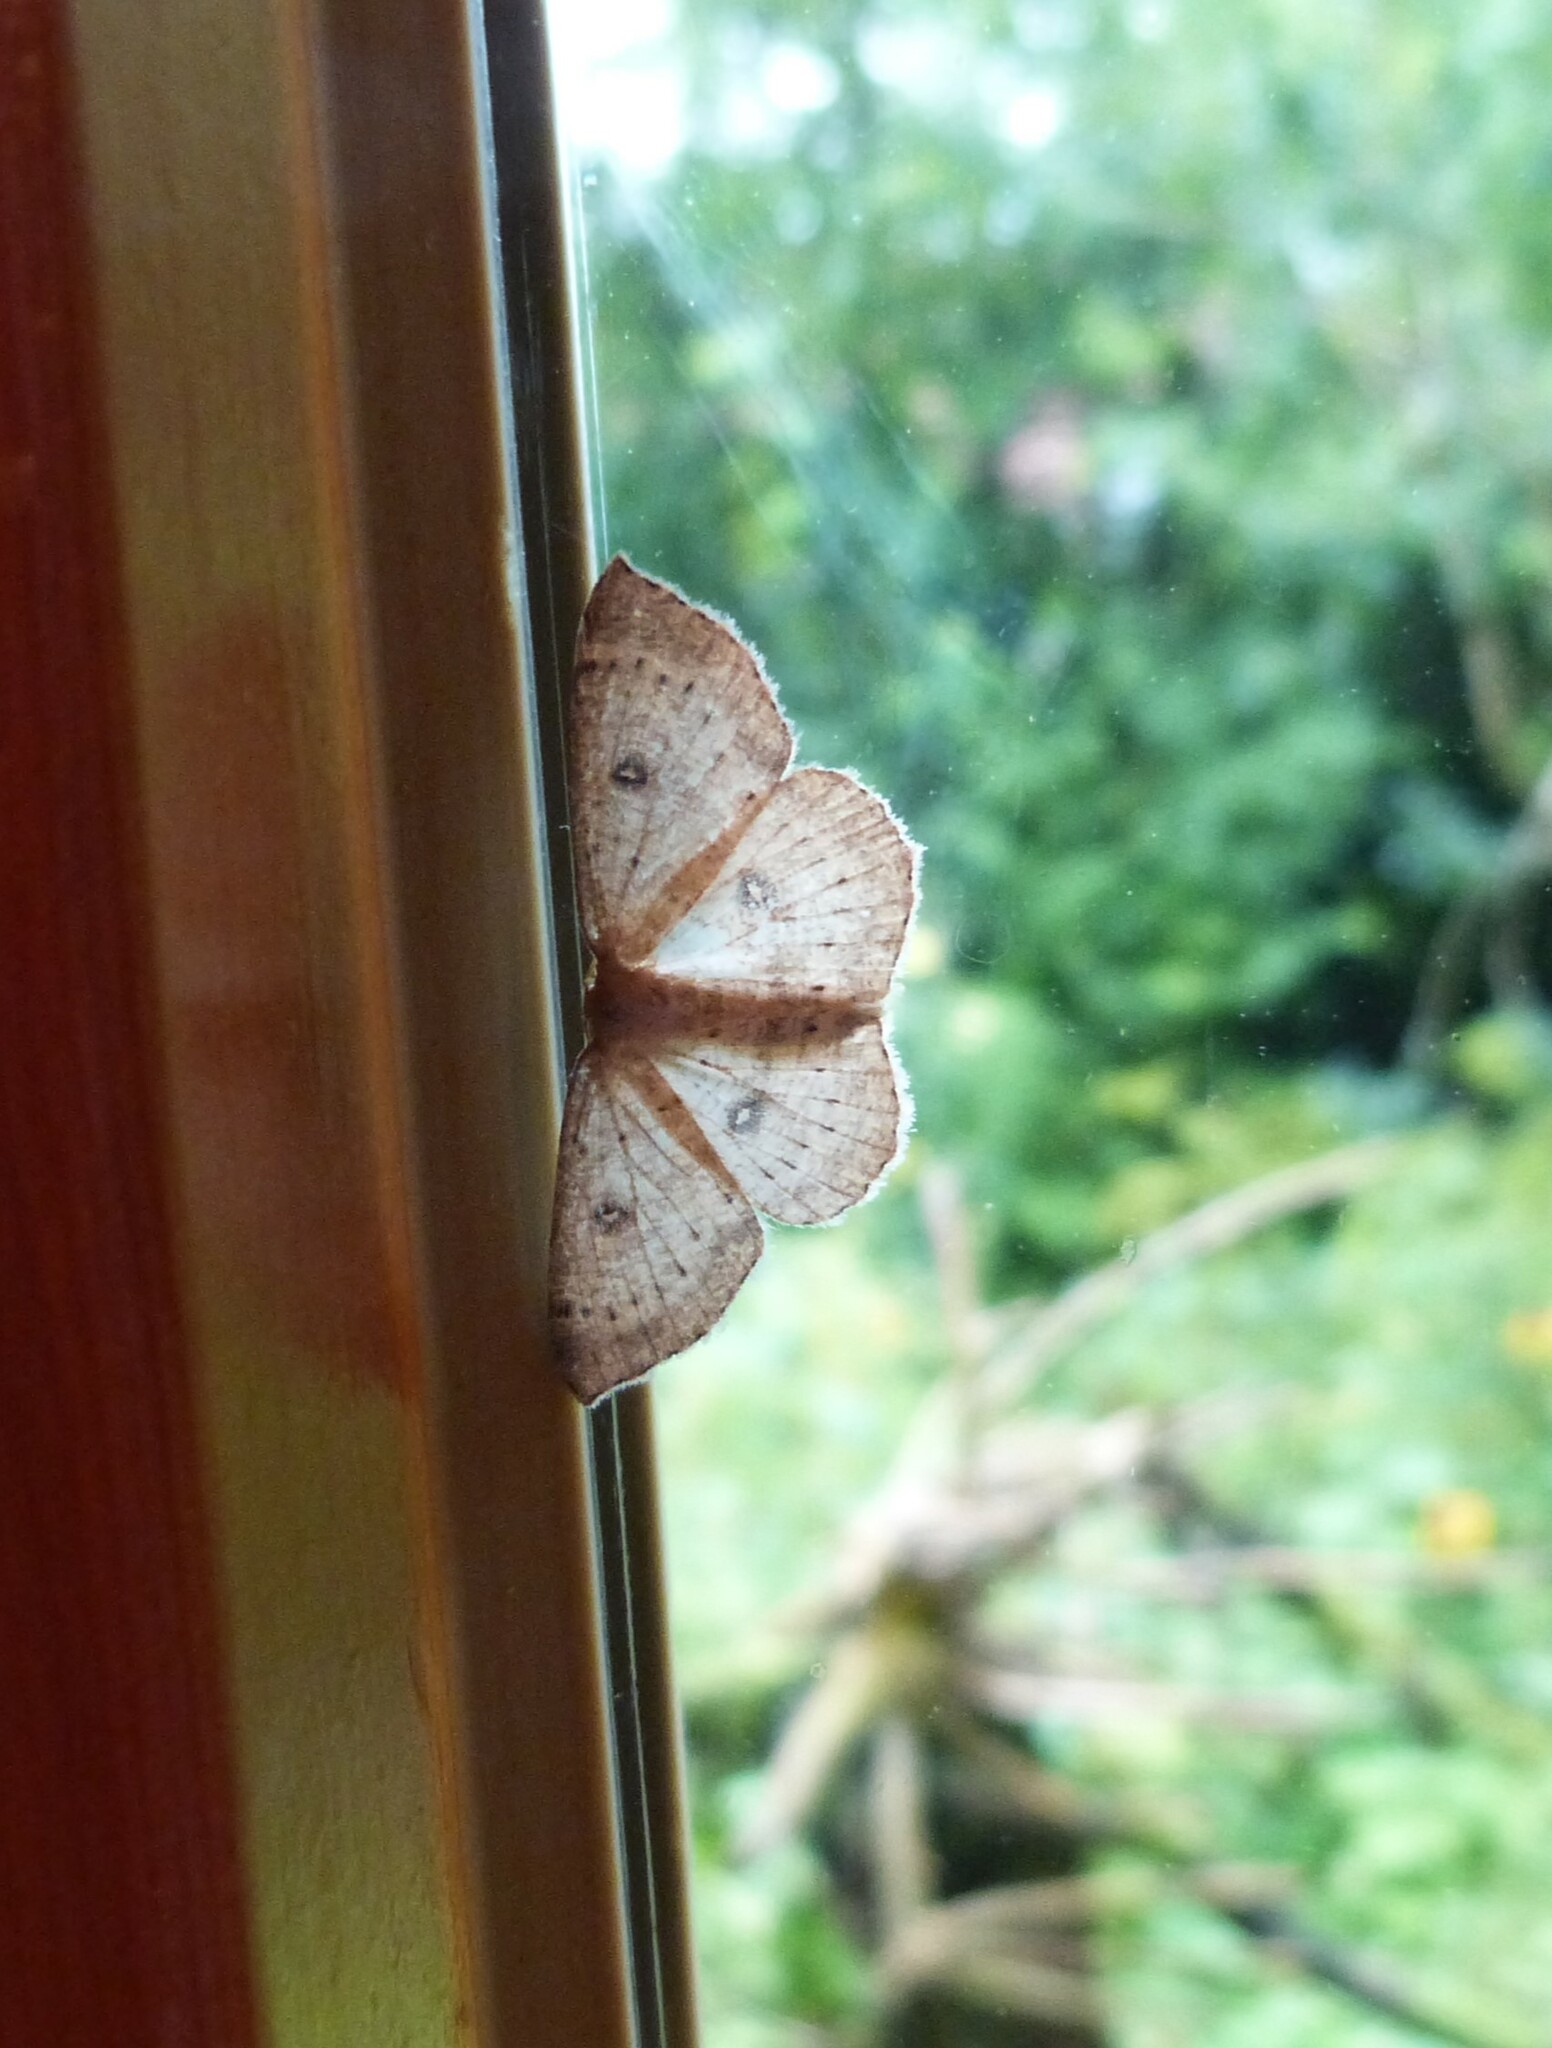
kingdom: Animalia
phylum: Arthropoda
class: Insecta
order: Lepidoptera
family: Geometridae
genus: Cyclophora
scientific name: Cyclophora albipunctata
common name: Birch mocha
